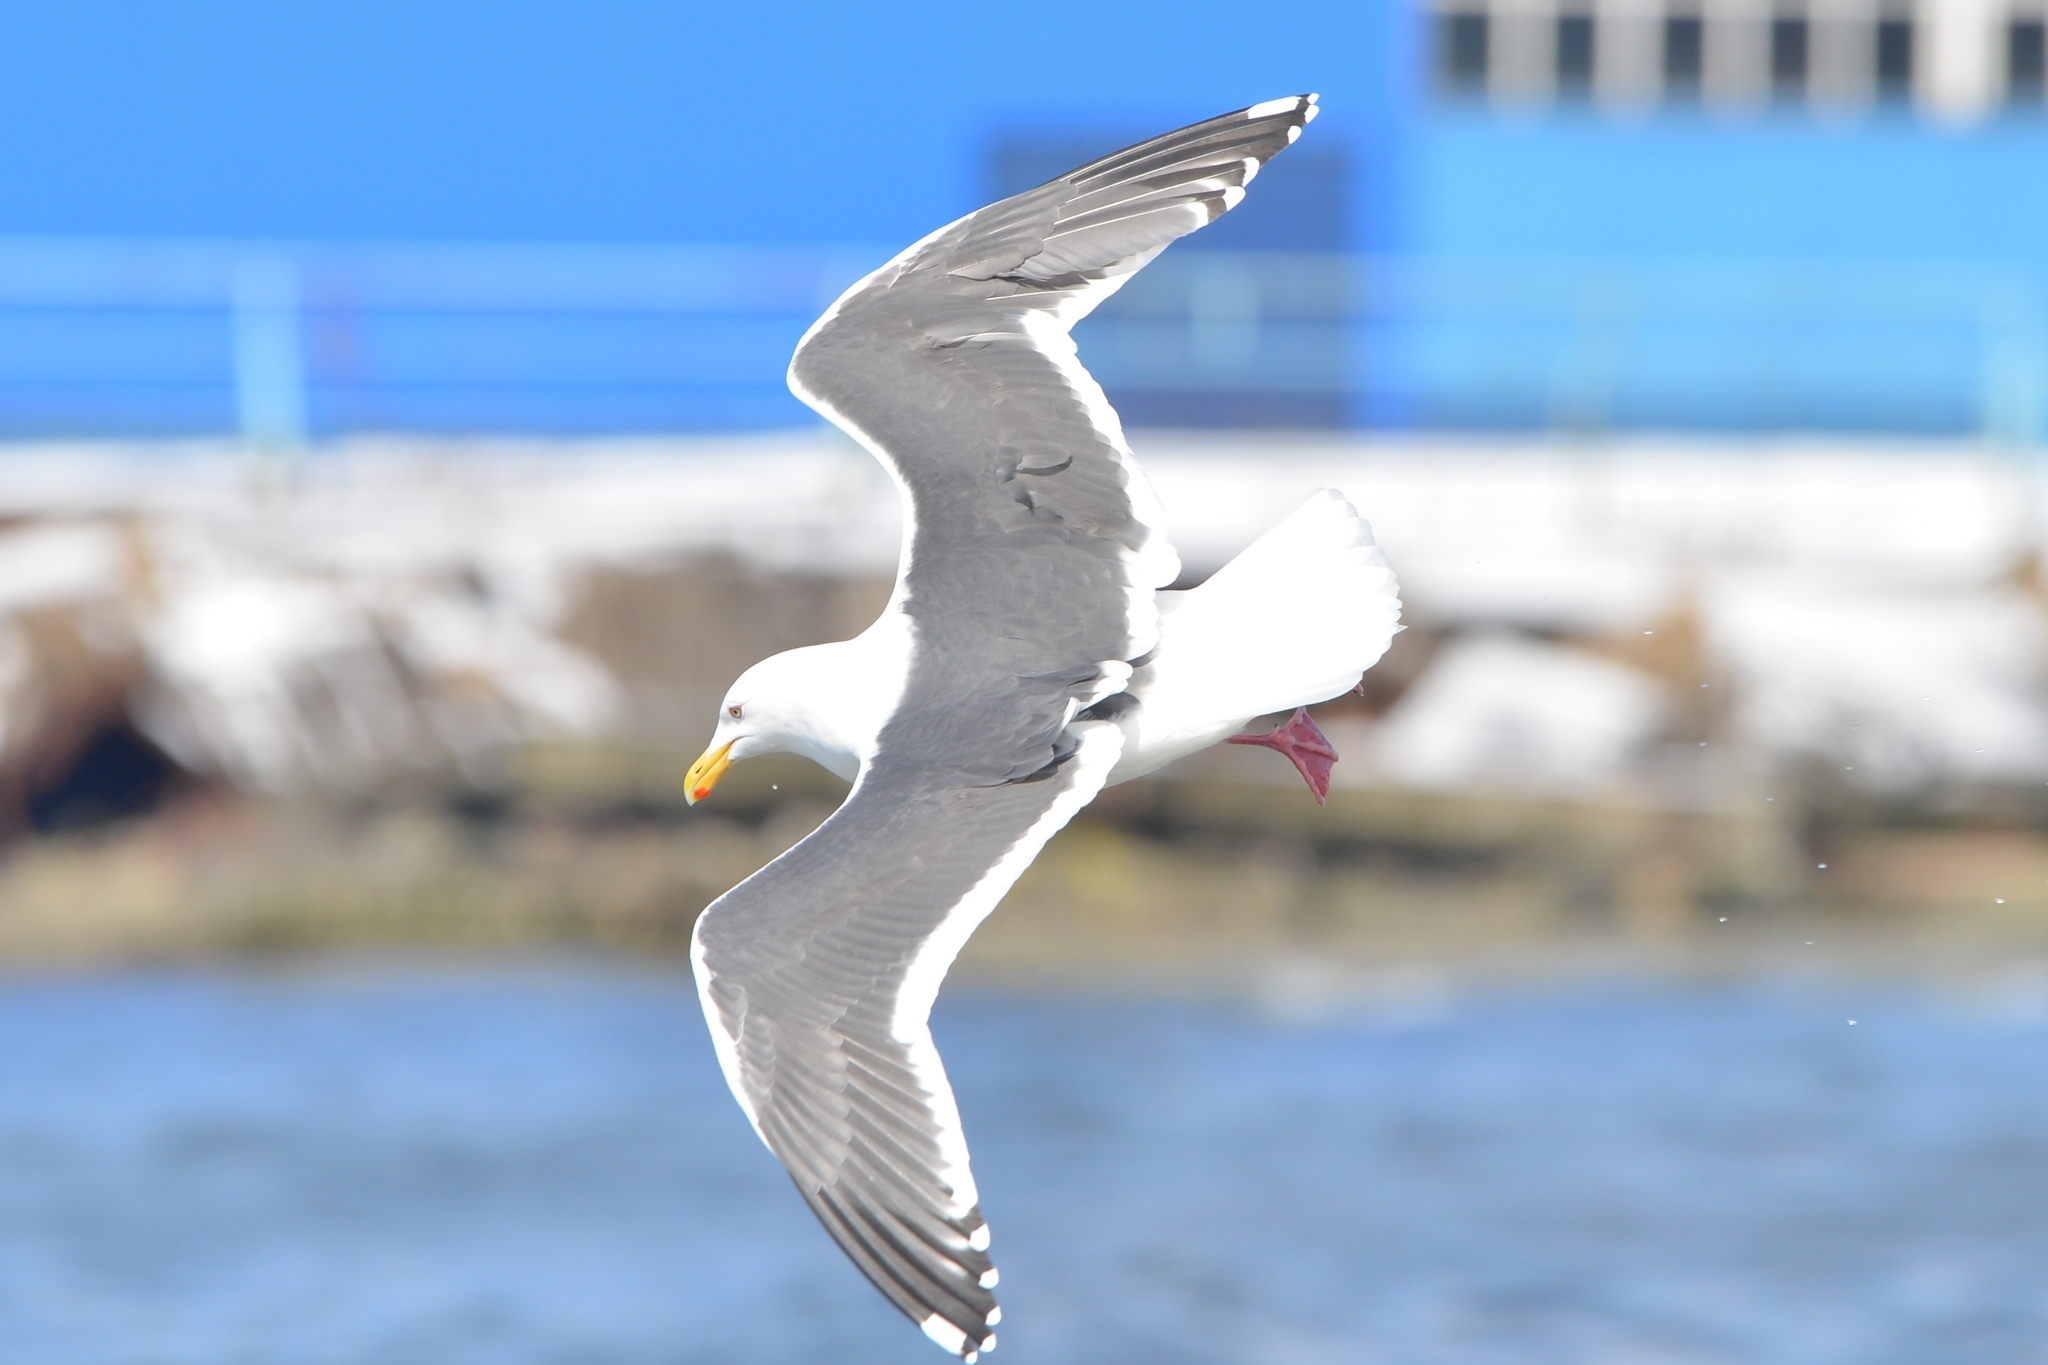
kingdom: Animalia
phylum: Chordata
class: Aves
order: Charadriiformes
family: Laridae
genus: Larus
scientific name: Larus schistisagus
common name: Slaty-backed gull
